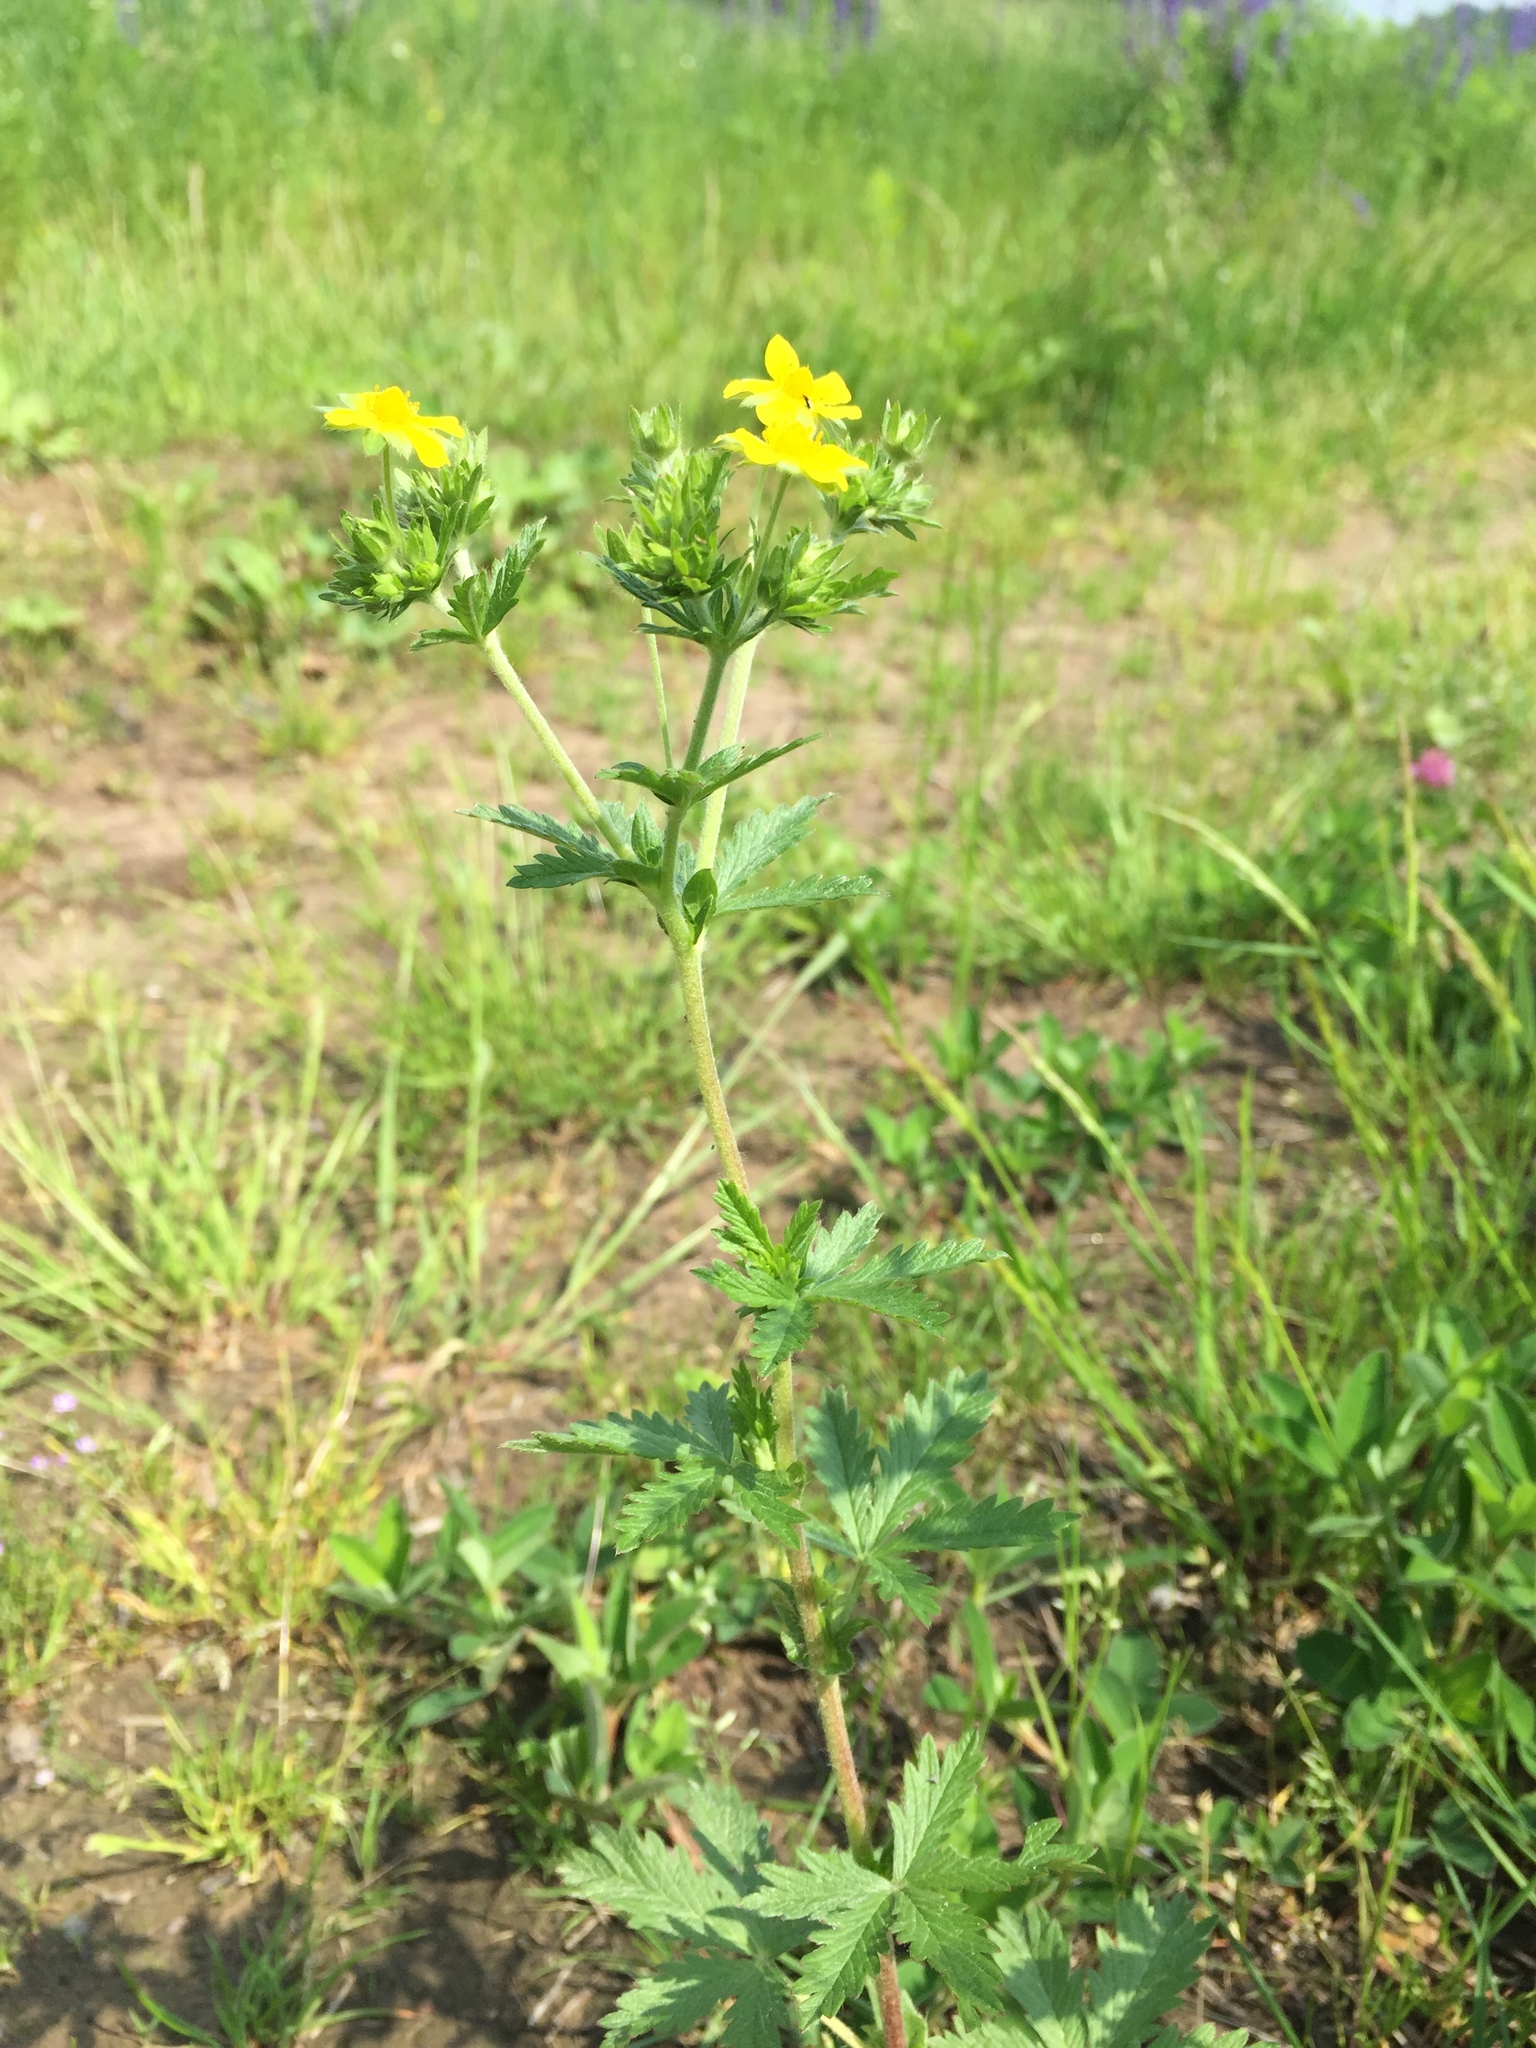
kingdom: Plantae
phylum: Tracheophyta
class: Magnoliopsida
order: Rosales
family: Rosaceae
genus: Potentilla
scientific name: Potentilla intermedia
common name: Downy cinquefoil
